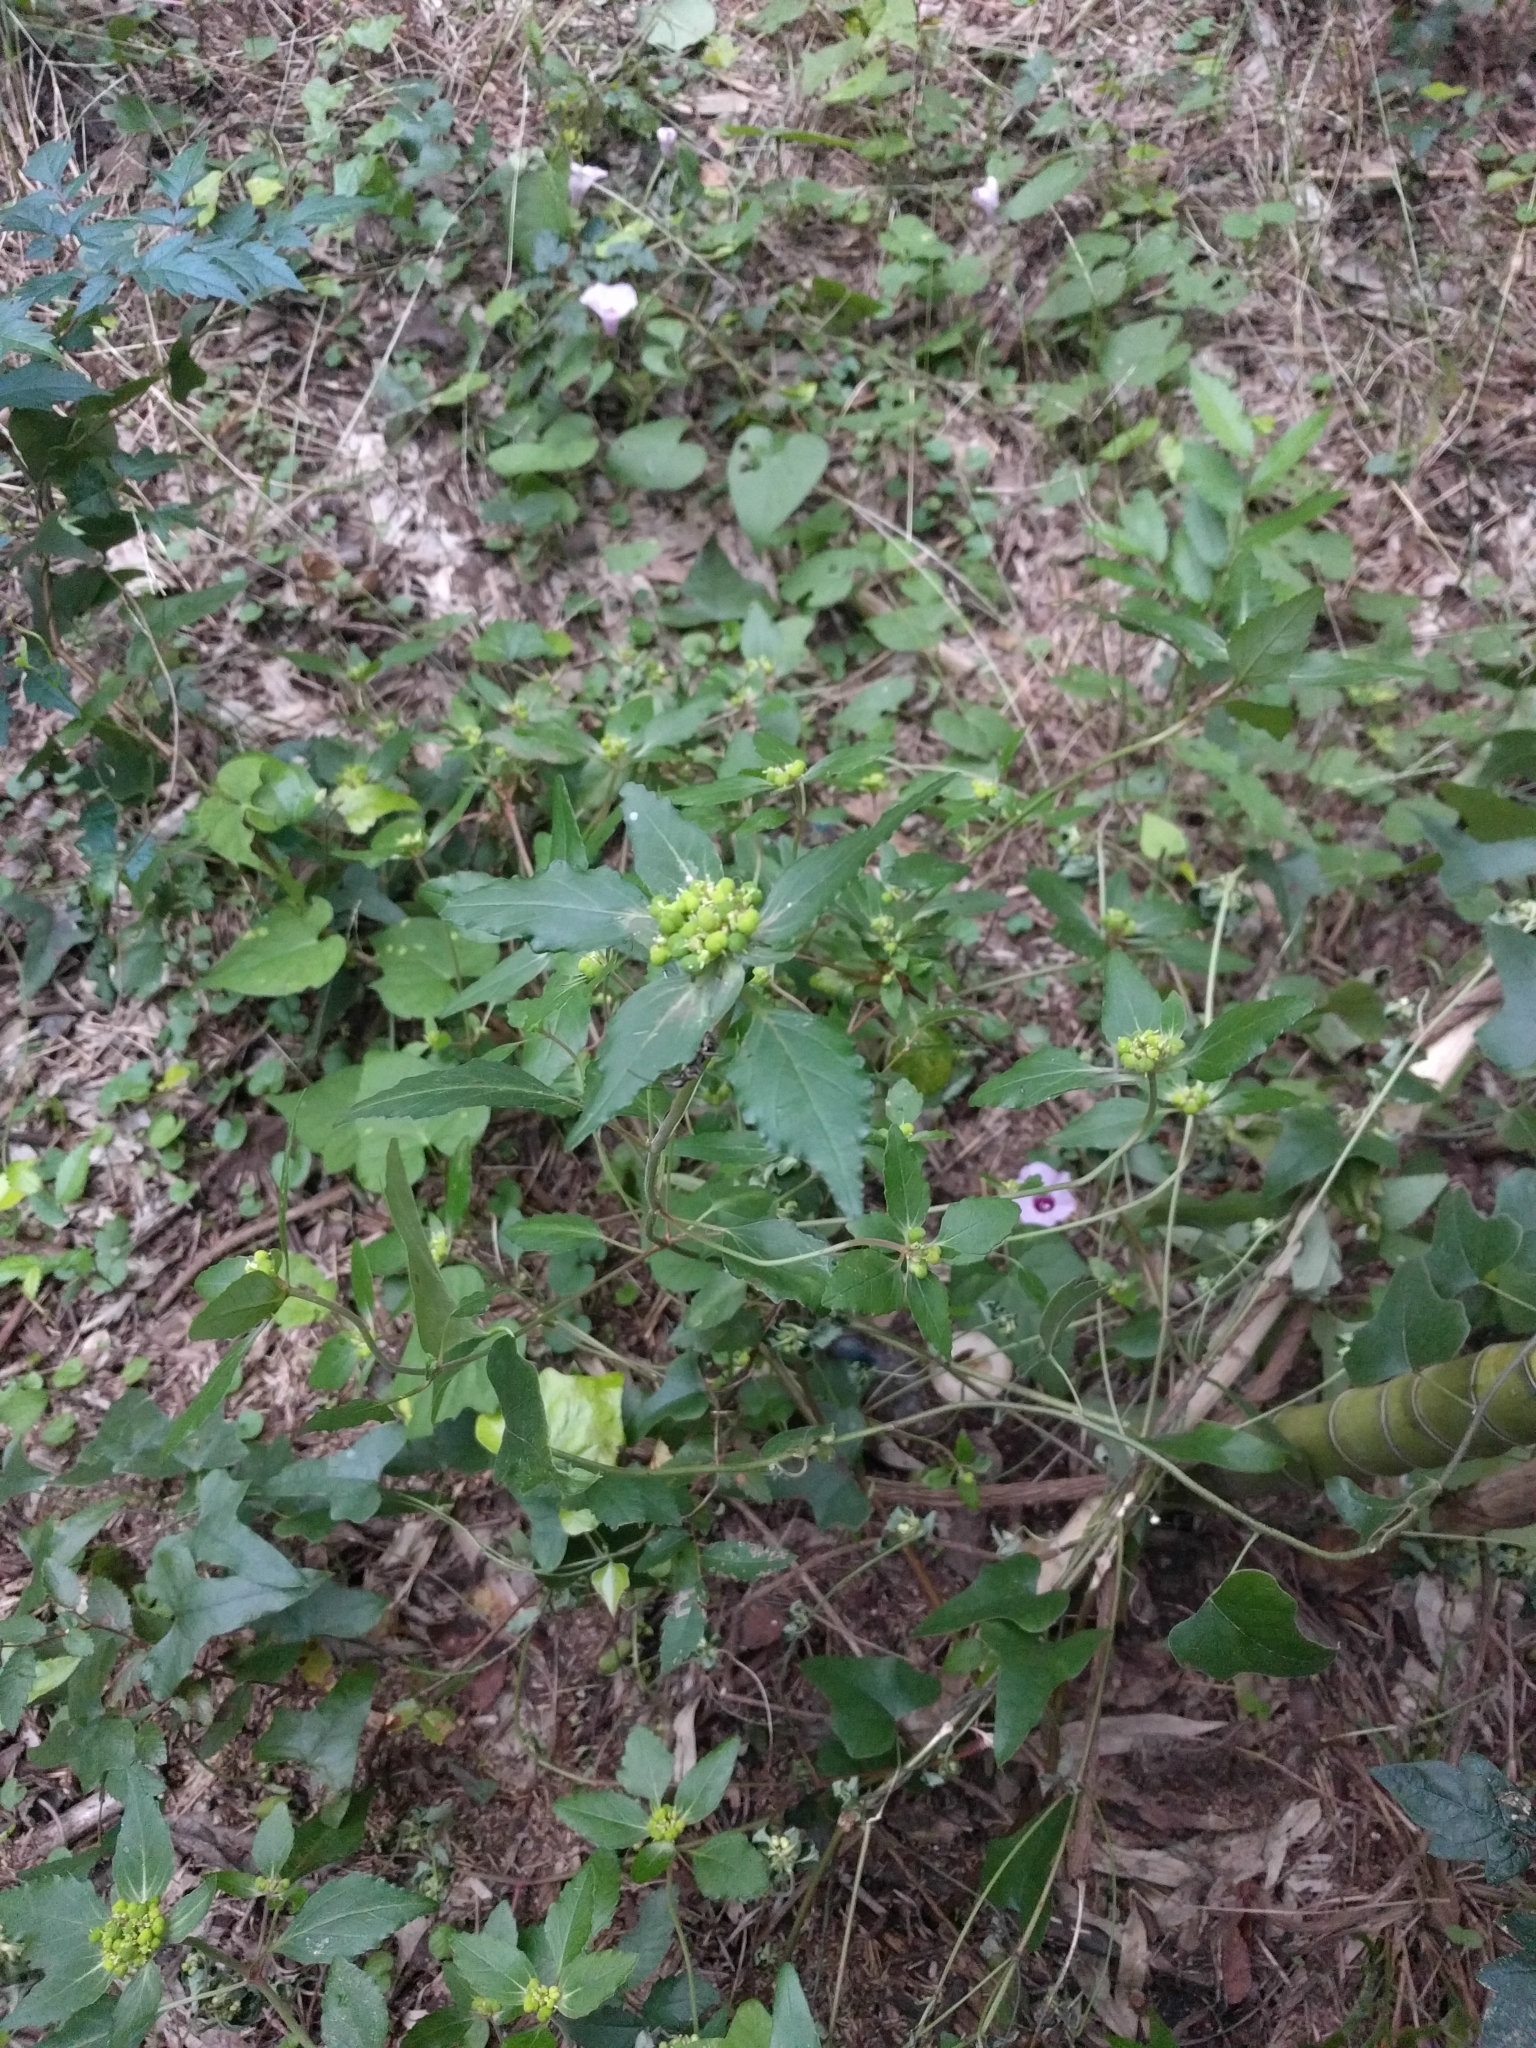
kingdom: Plantae
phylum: Tracheophyta
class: Magnoliopsida
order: Malpighiales
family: Euphorbiaceae
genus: Euphorbia
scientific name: Euphorbia dentata
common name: Dentate spurge
